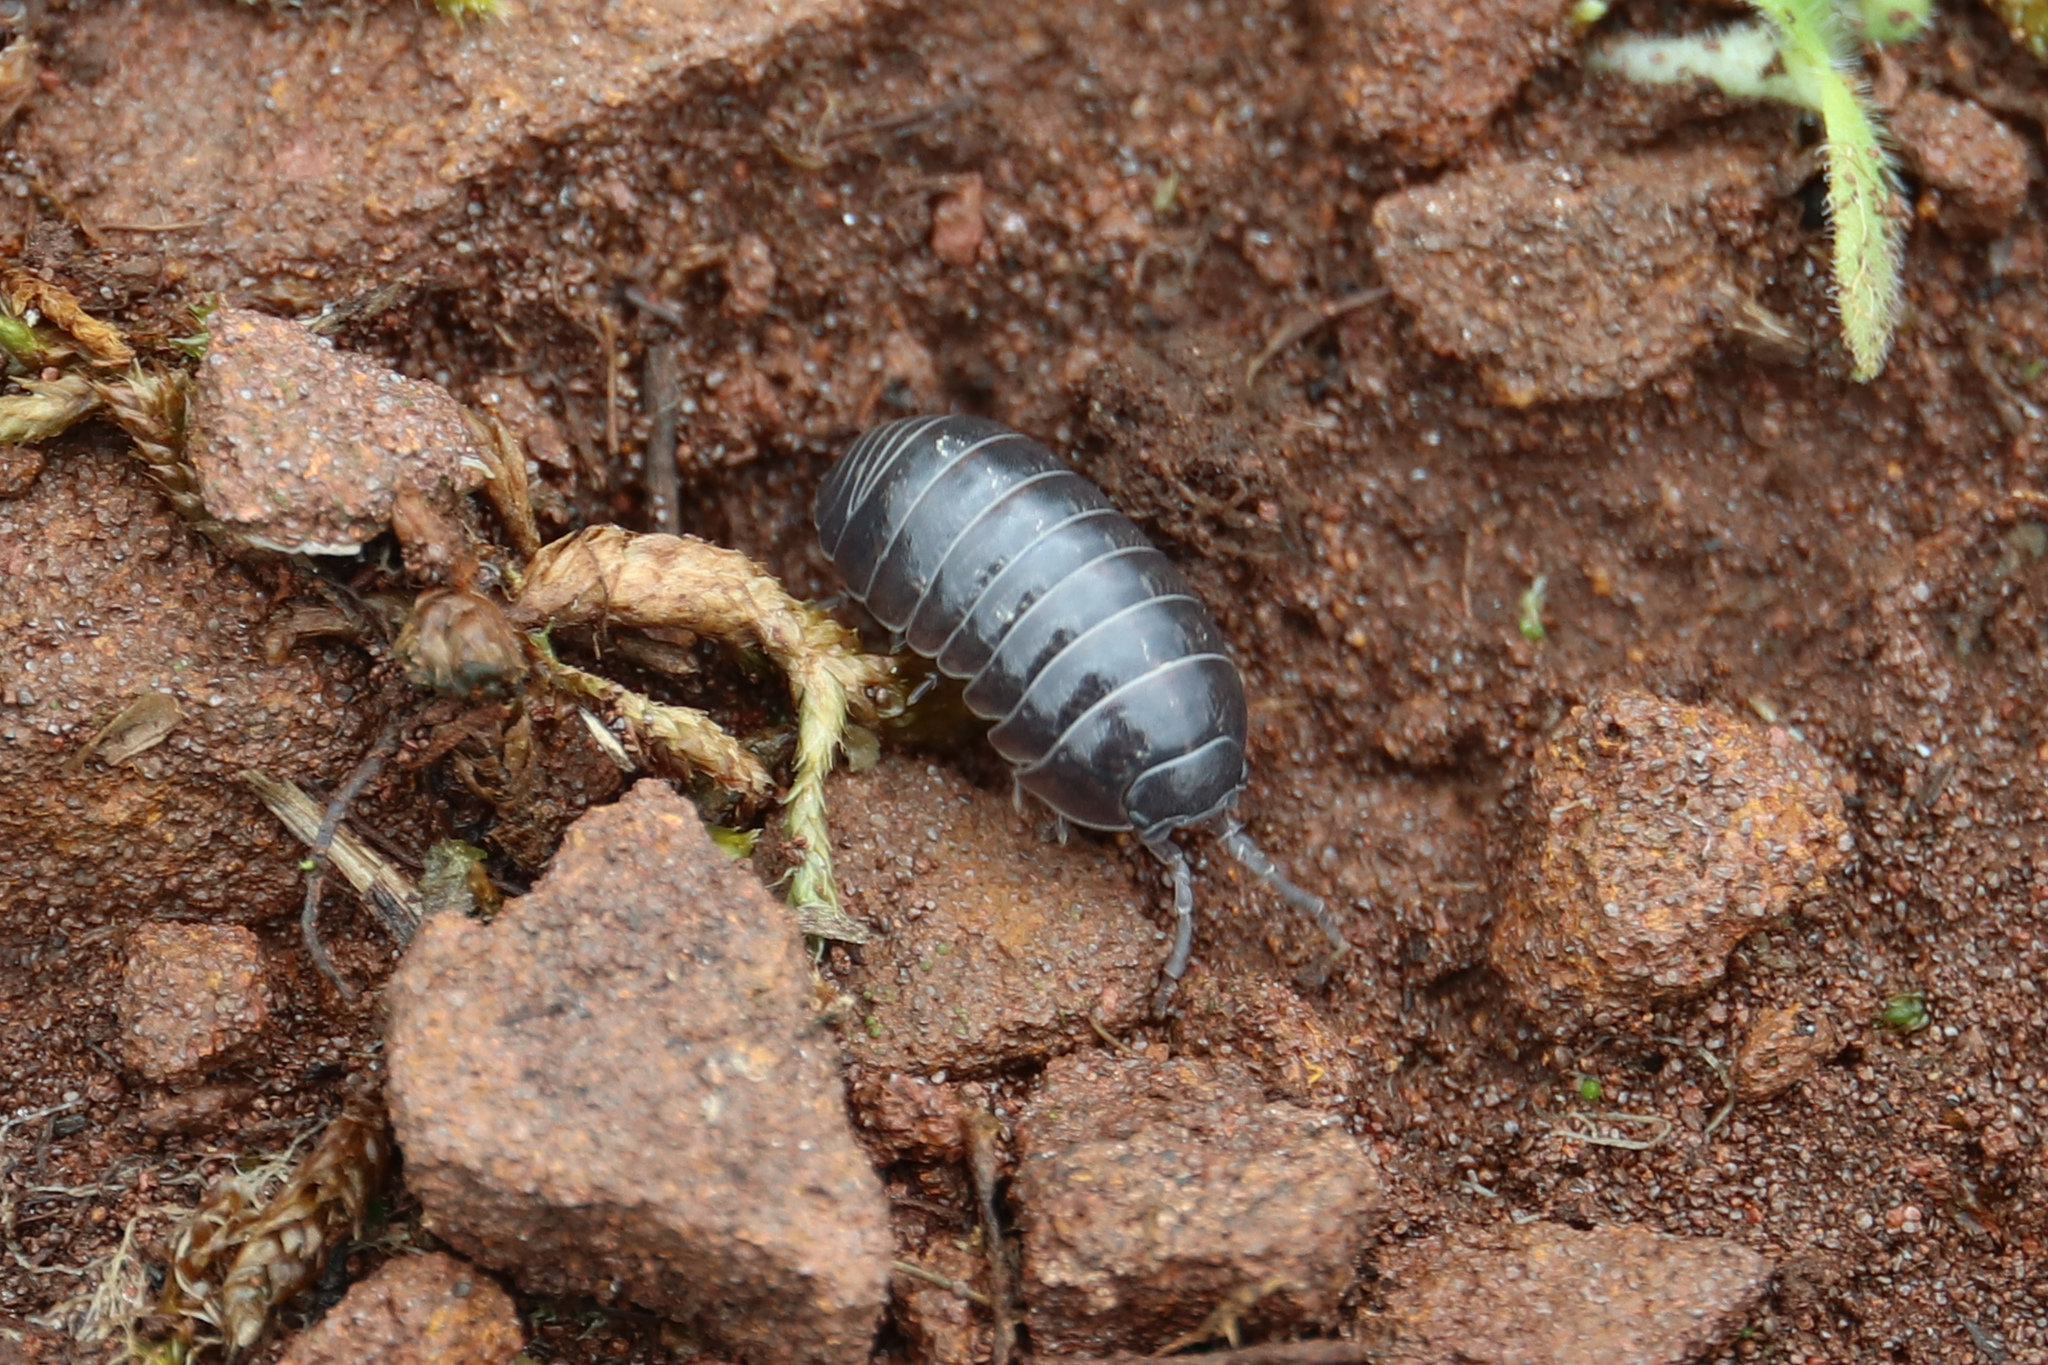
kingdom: Animalia
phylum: Arthropoda
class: Malacostraca
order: Isopoda
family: Armadillidiidae
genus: Armadillidium
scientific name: Armadillidium vulgare
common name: Common pill woodlouse
